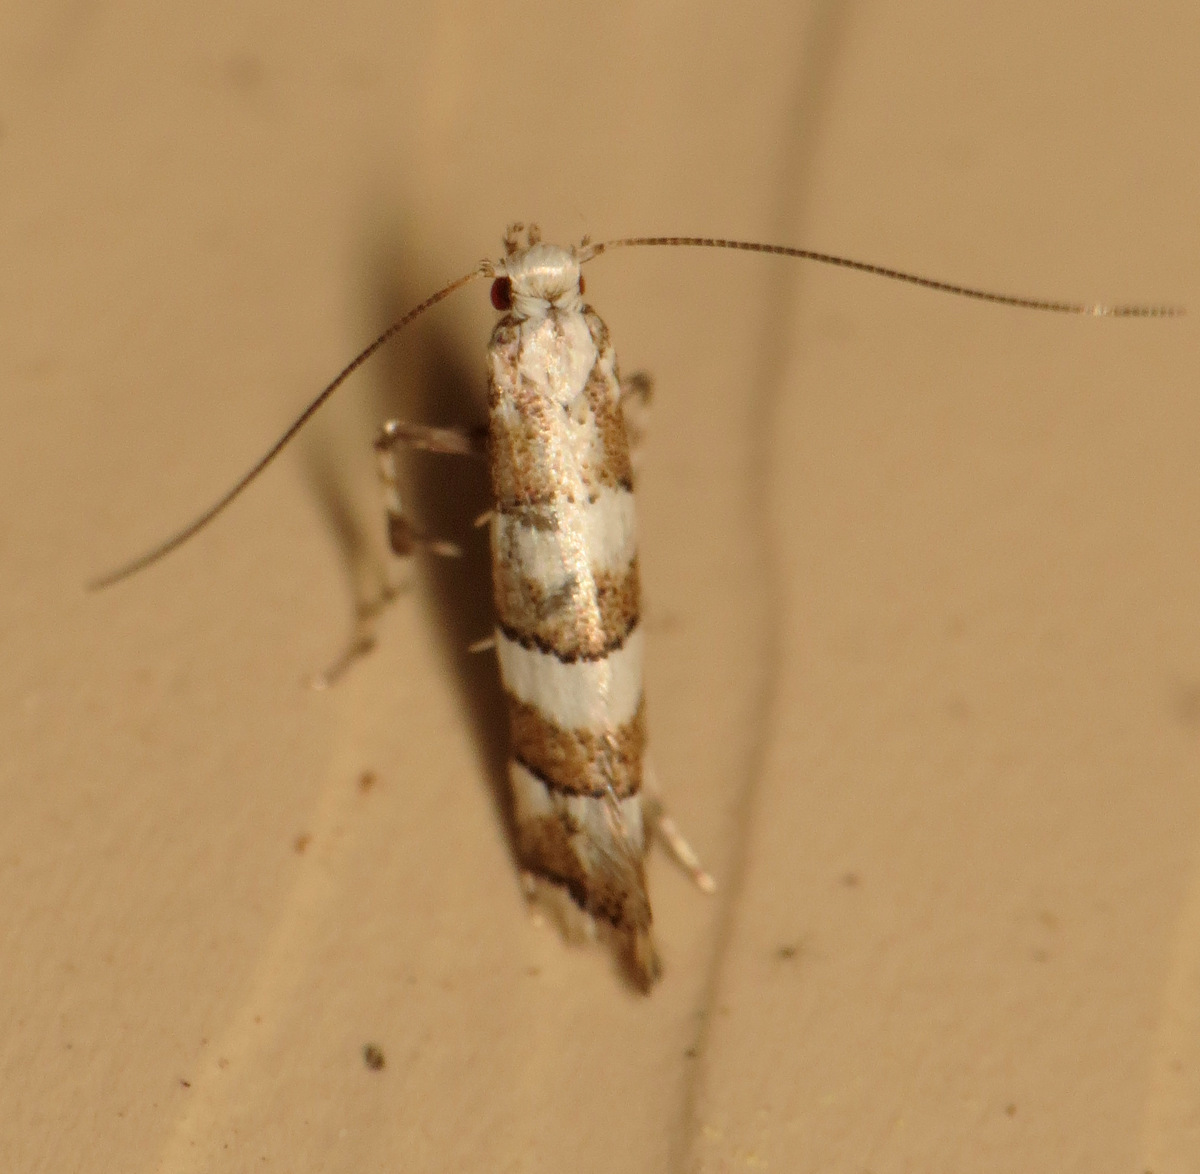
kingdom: Animalia
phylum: Arthropoda
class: Insecta
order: Lepidoptera
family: Gracillariidae
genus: Marmara
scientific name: Marmara fasciella
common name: White pine barkminer moth
